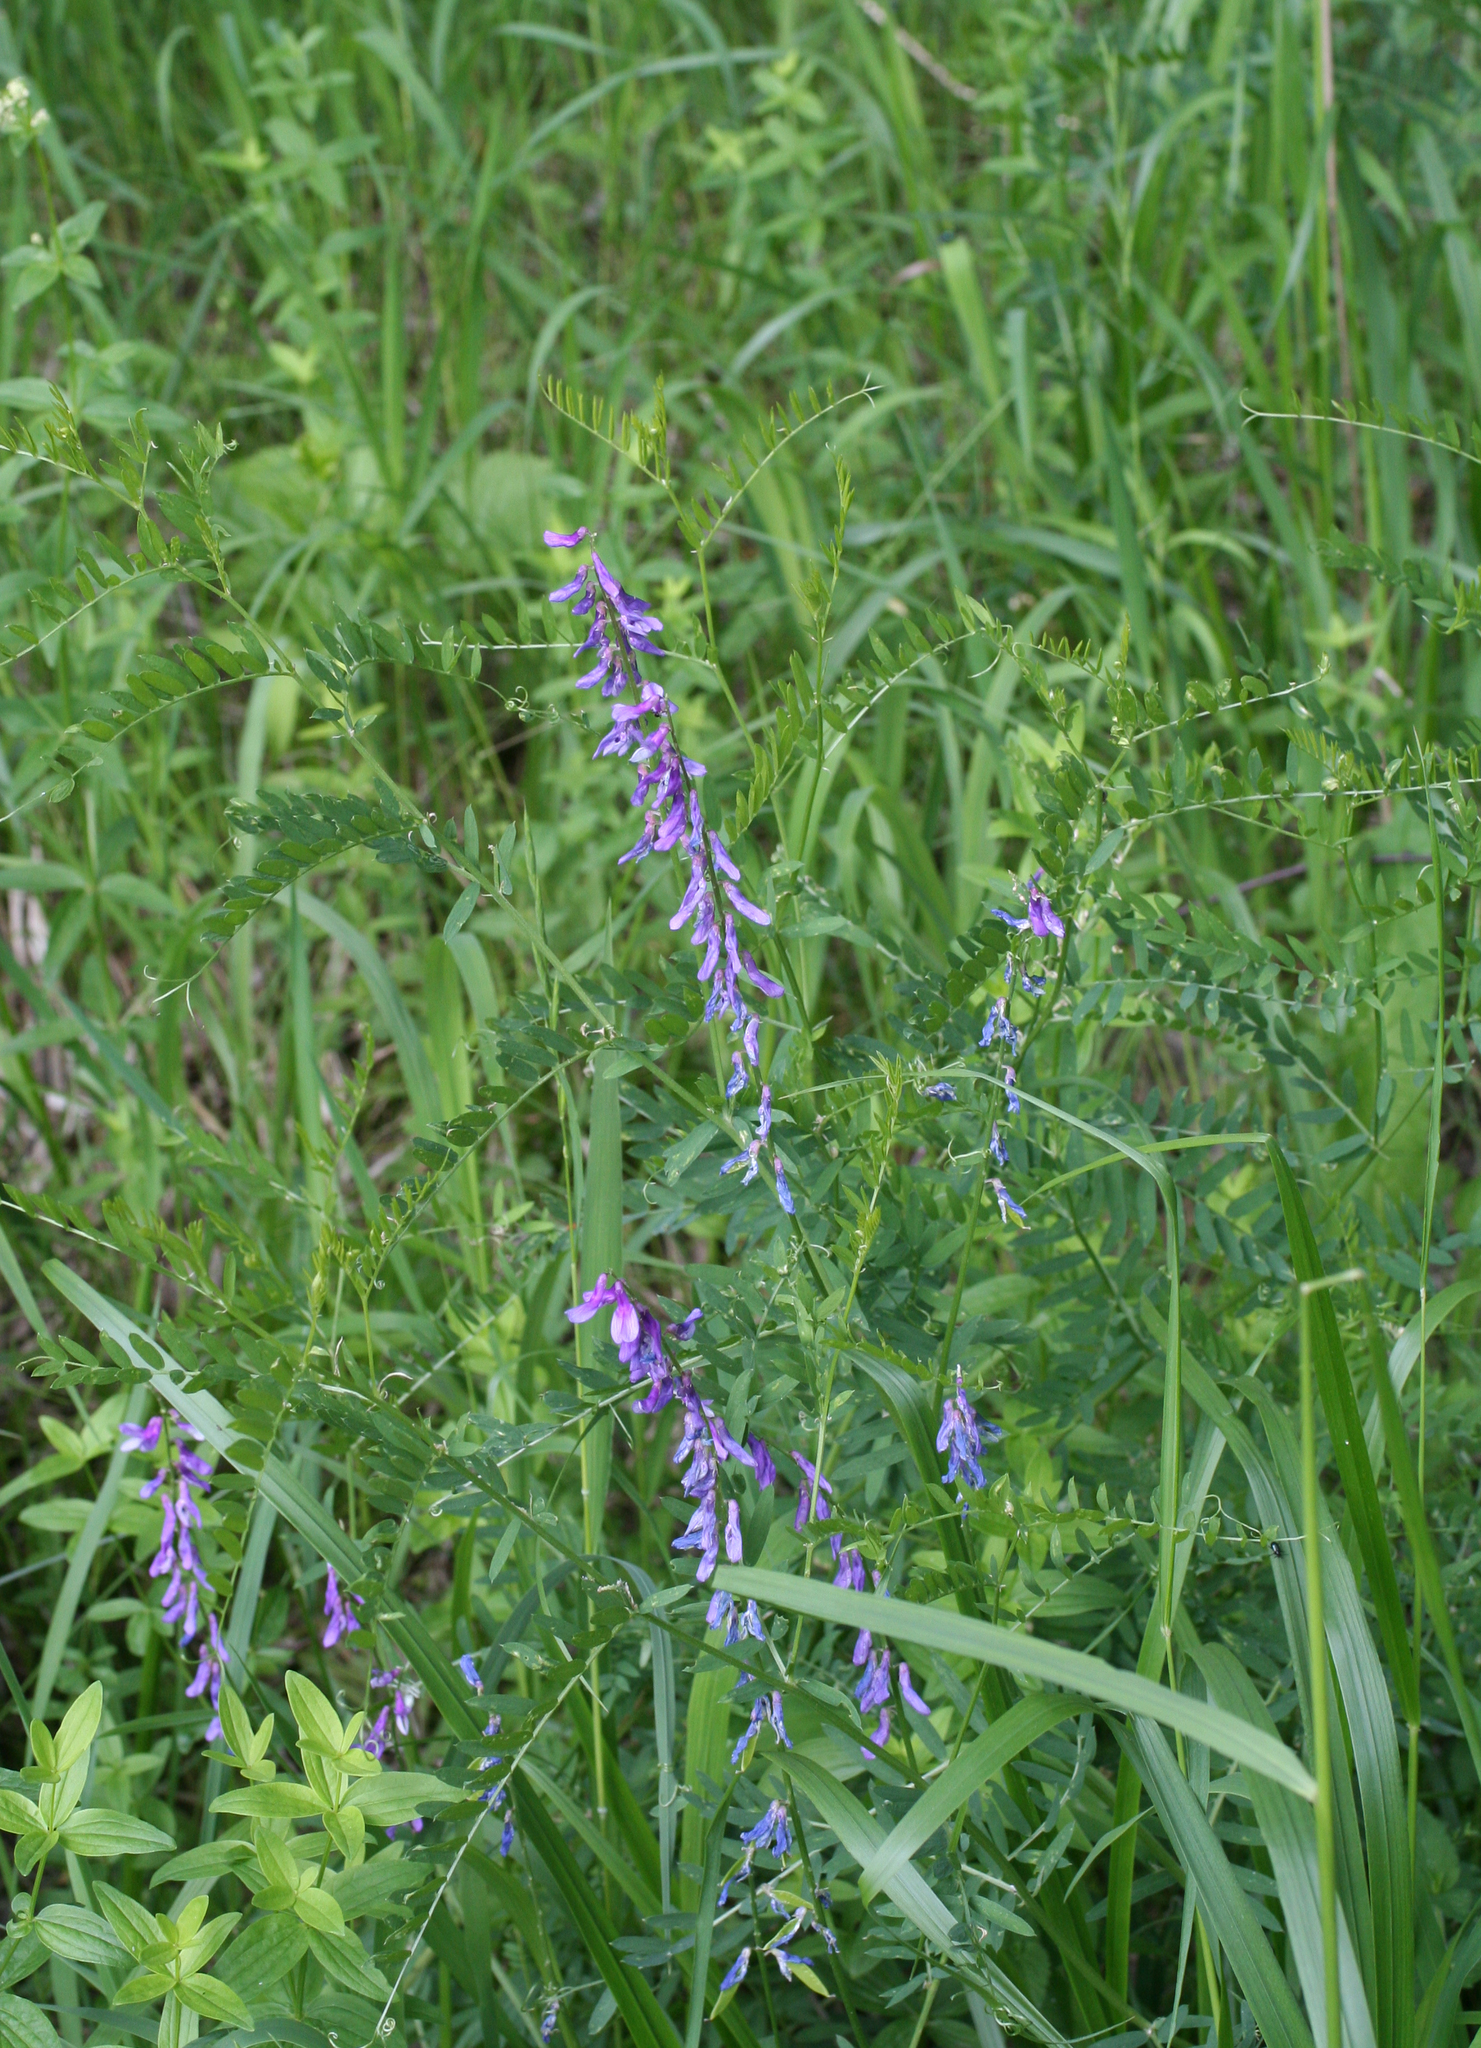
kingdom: Plantae
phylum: Tracheophyta
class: Magnoliopsida
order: Fabales
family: Fabaceae
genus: Vicia
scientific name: Vicia tenuifolia
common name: Fine-leaved vetch
